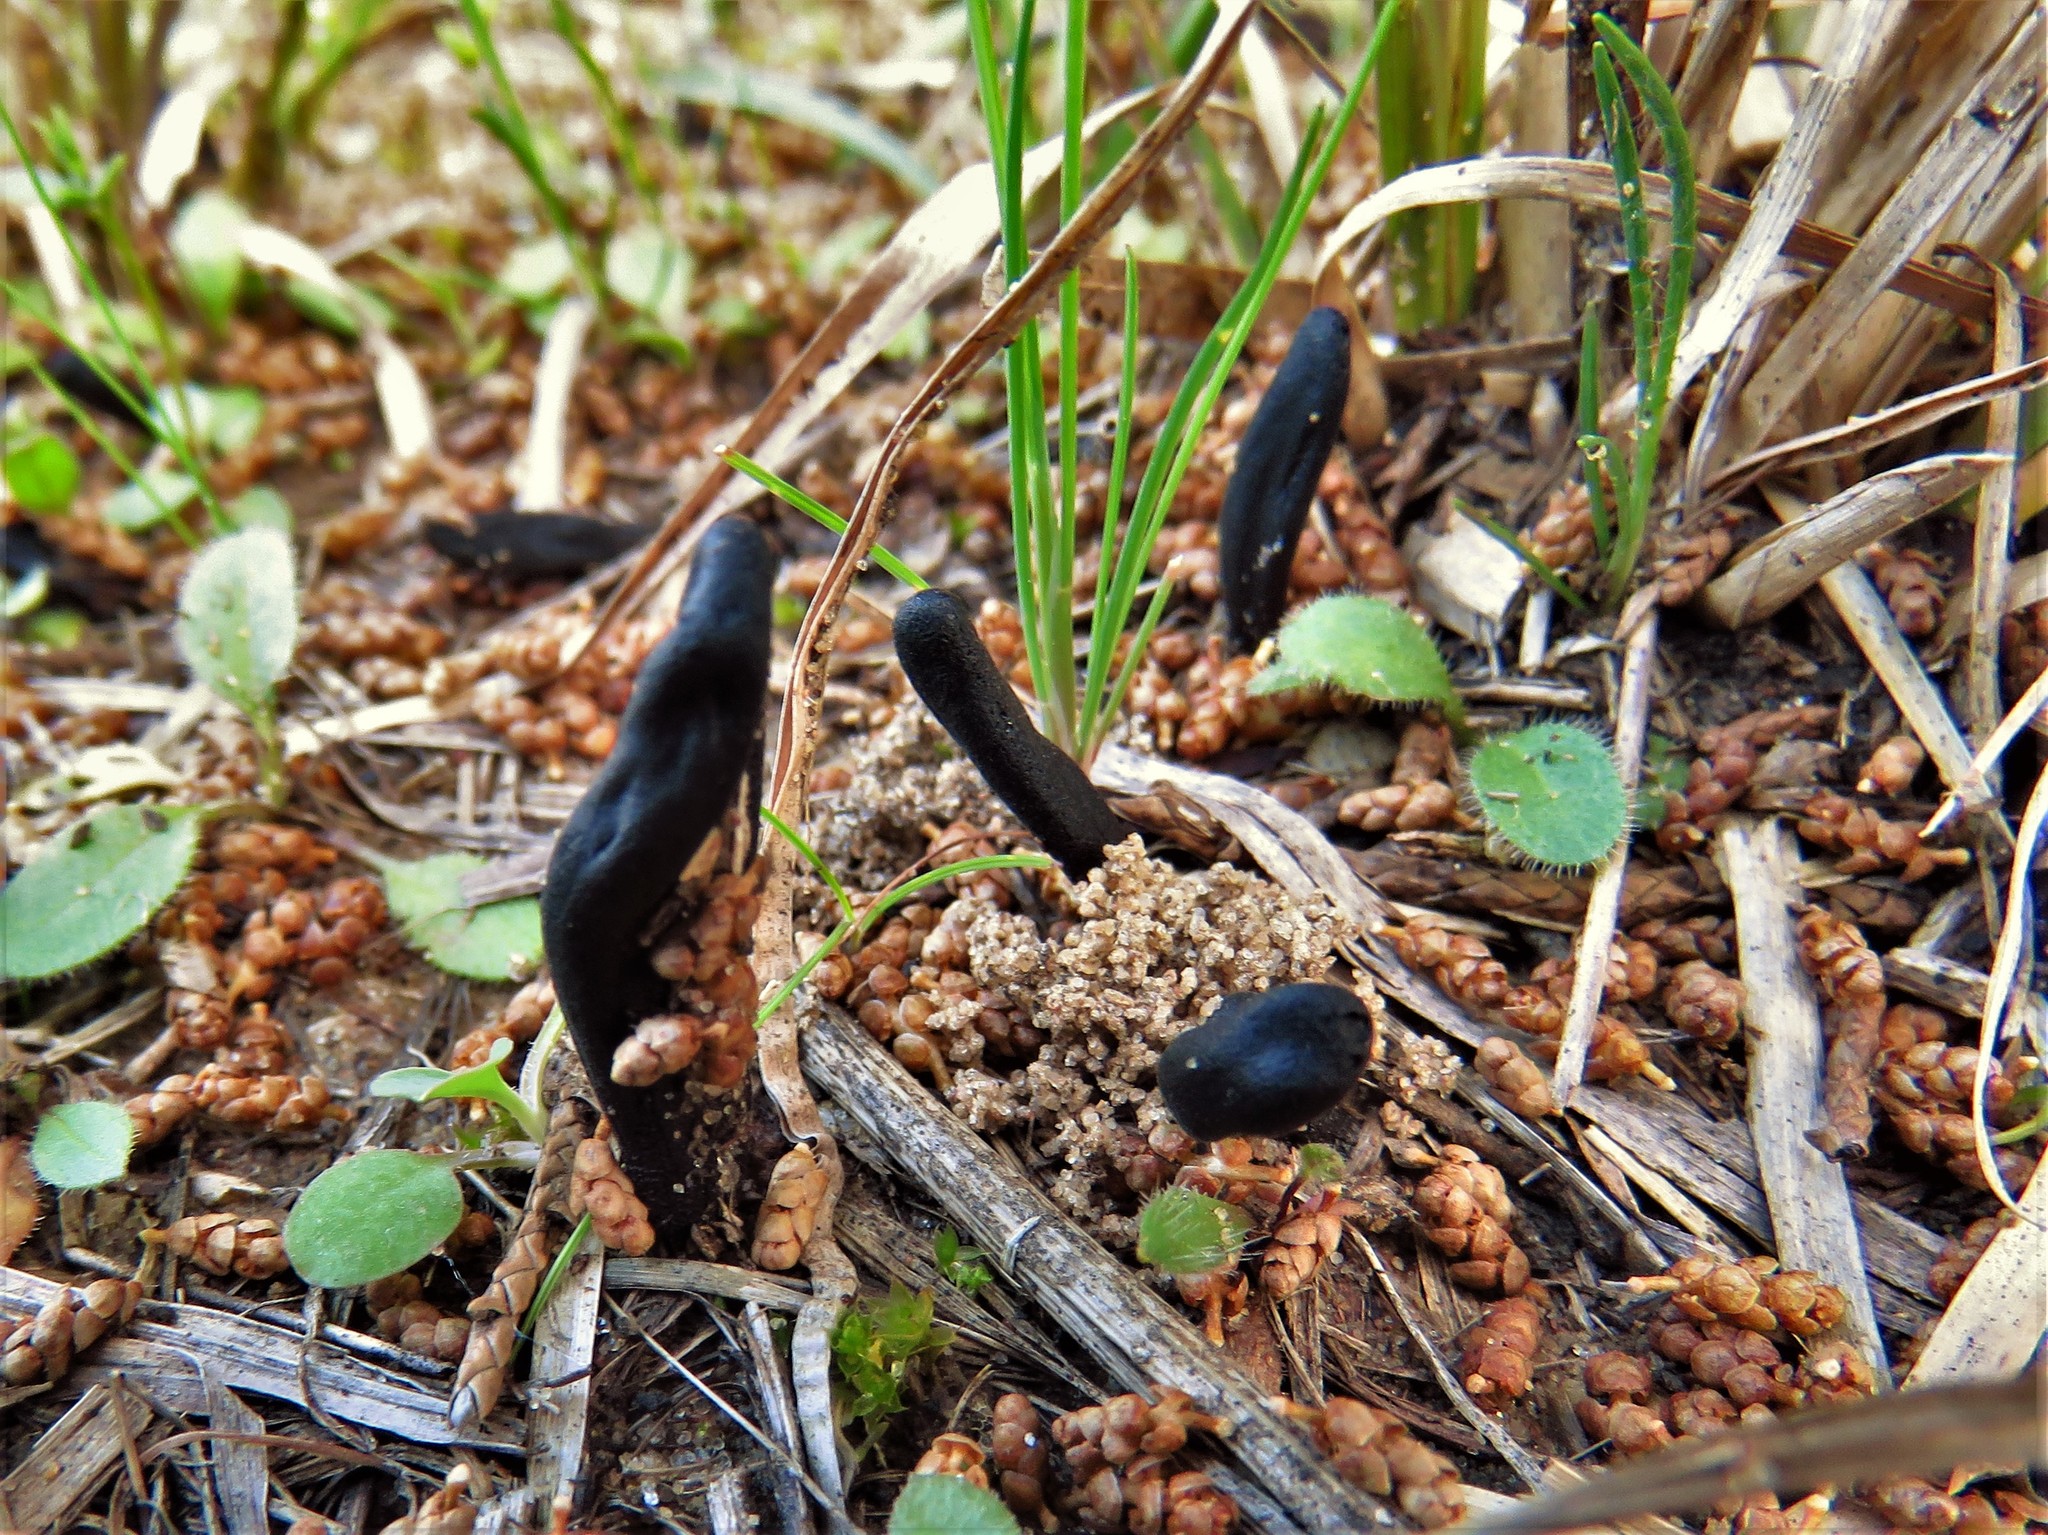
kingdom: Fungi
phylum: Ascomycota
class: Sordariomycetes
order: Xylariales
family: Xylariaceae
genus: Xylaria
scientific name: Xylaria polymorpha
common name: Dead man's fingers
